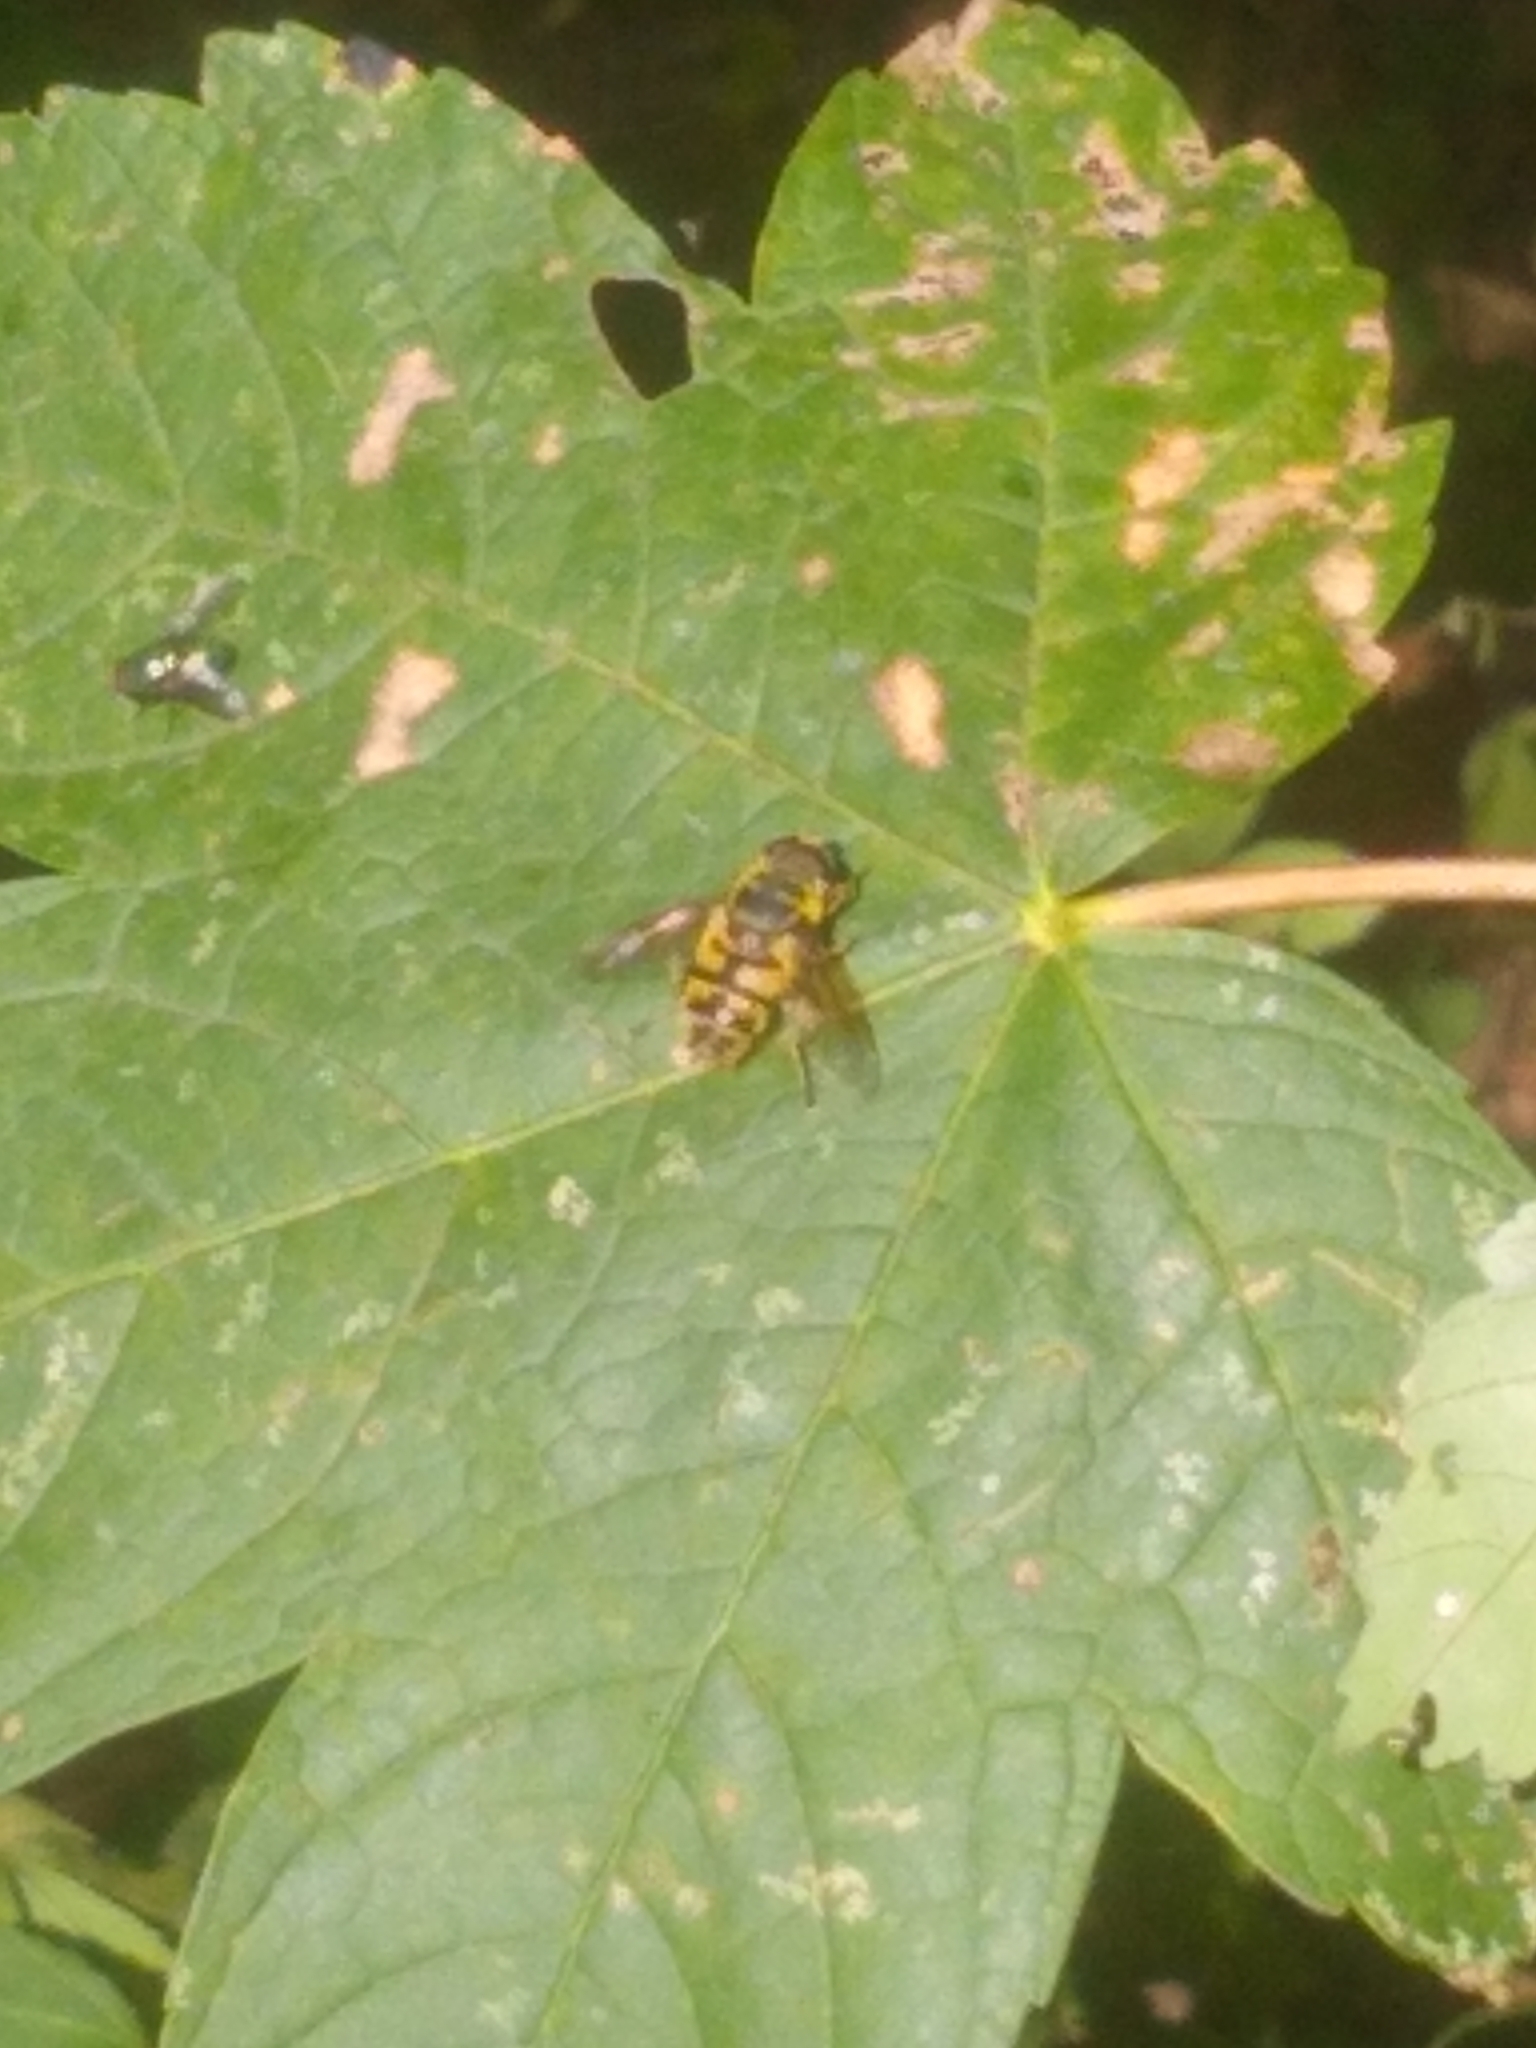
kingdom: Animalia
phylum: Arthropoda
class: Insecta
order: Diptera
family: Syrphidae
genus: Myathropa
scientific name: Myathropa florea
